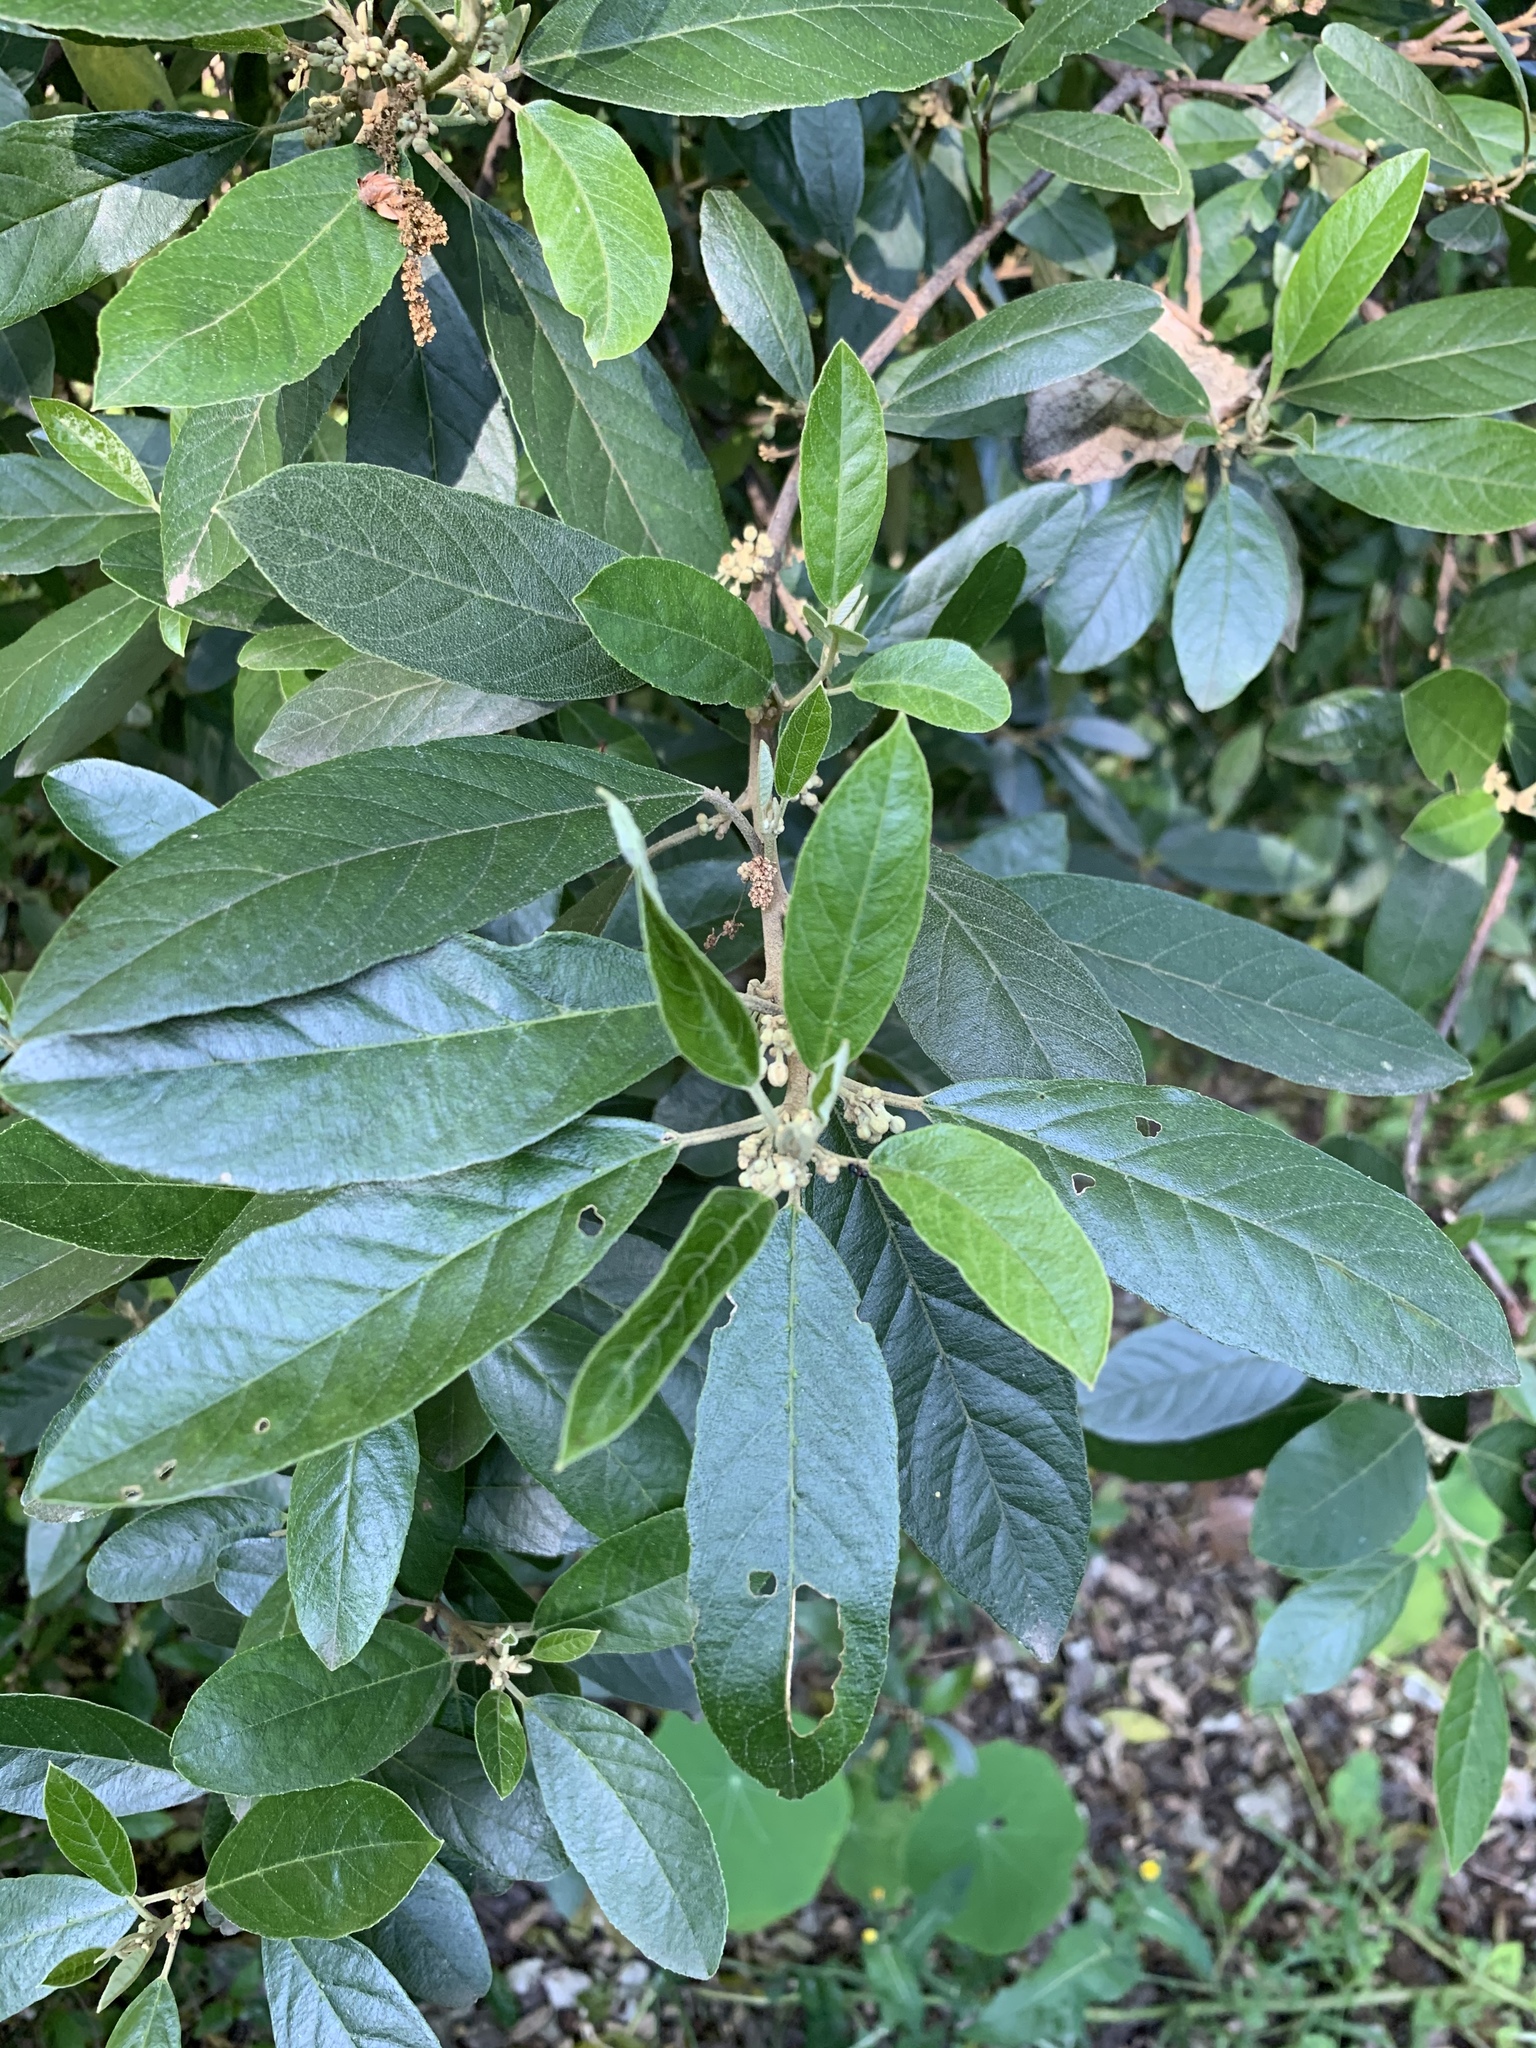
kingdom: Plantae
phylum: Tracheophyta
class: Magnoliopsida
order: Malpighiales
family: Achariaceae
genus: Kiggelaria
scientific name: Kiggelaria africana
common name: Wild peach
